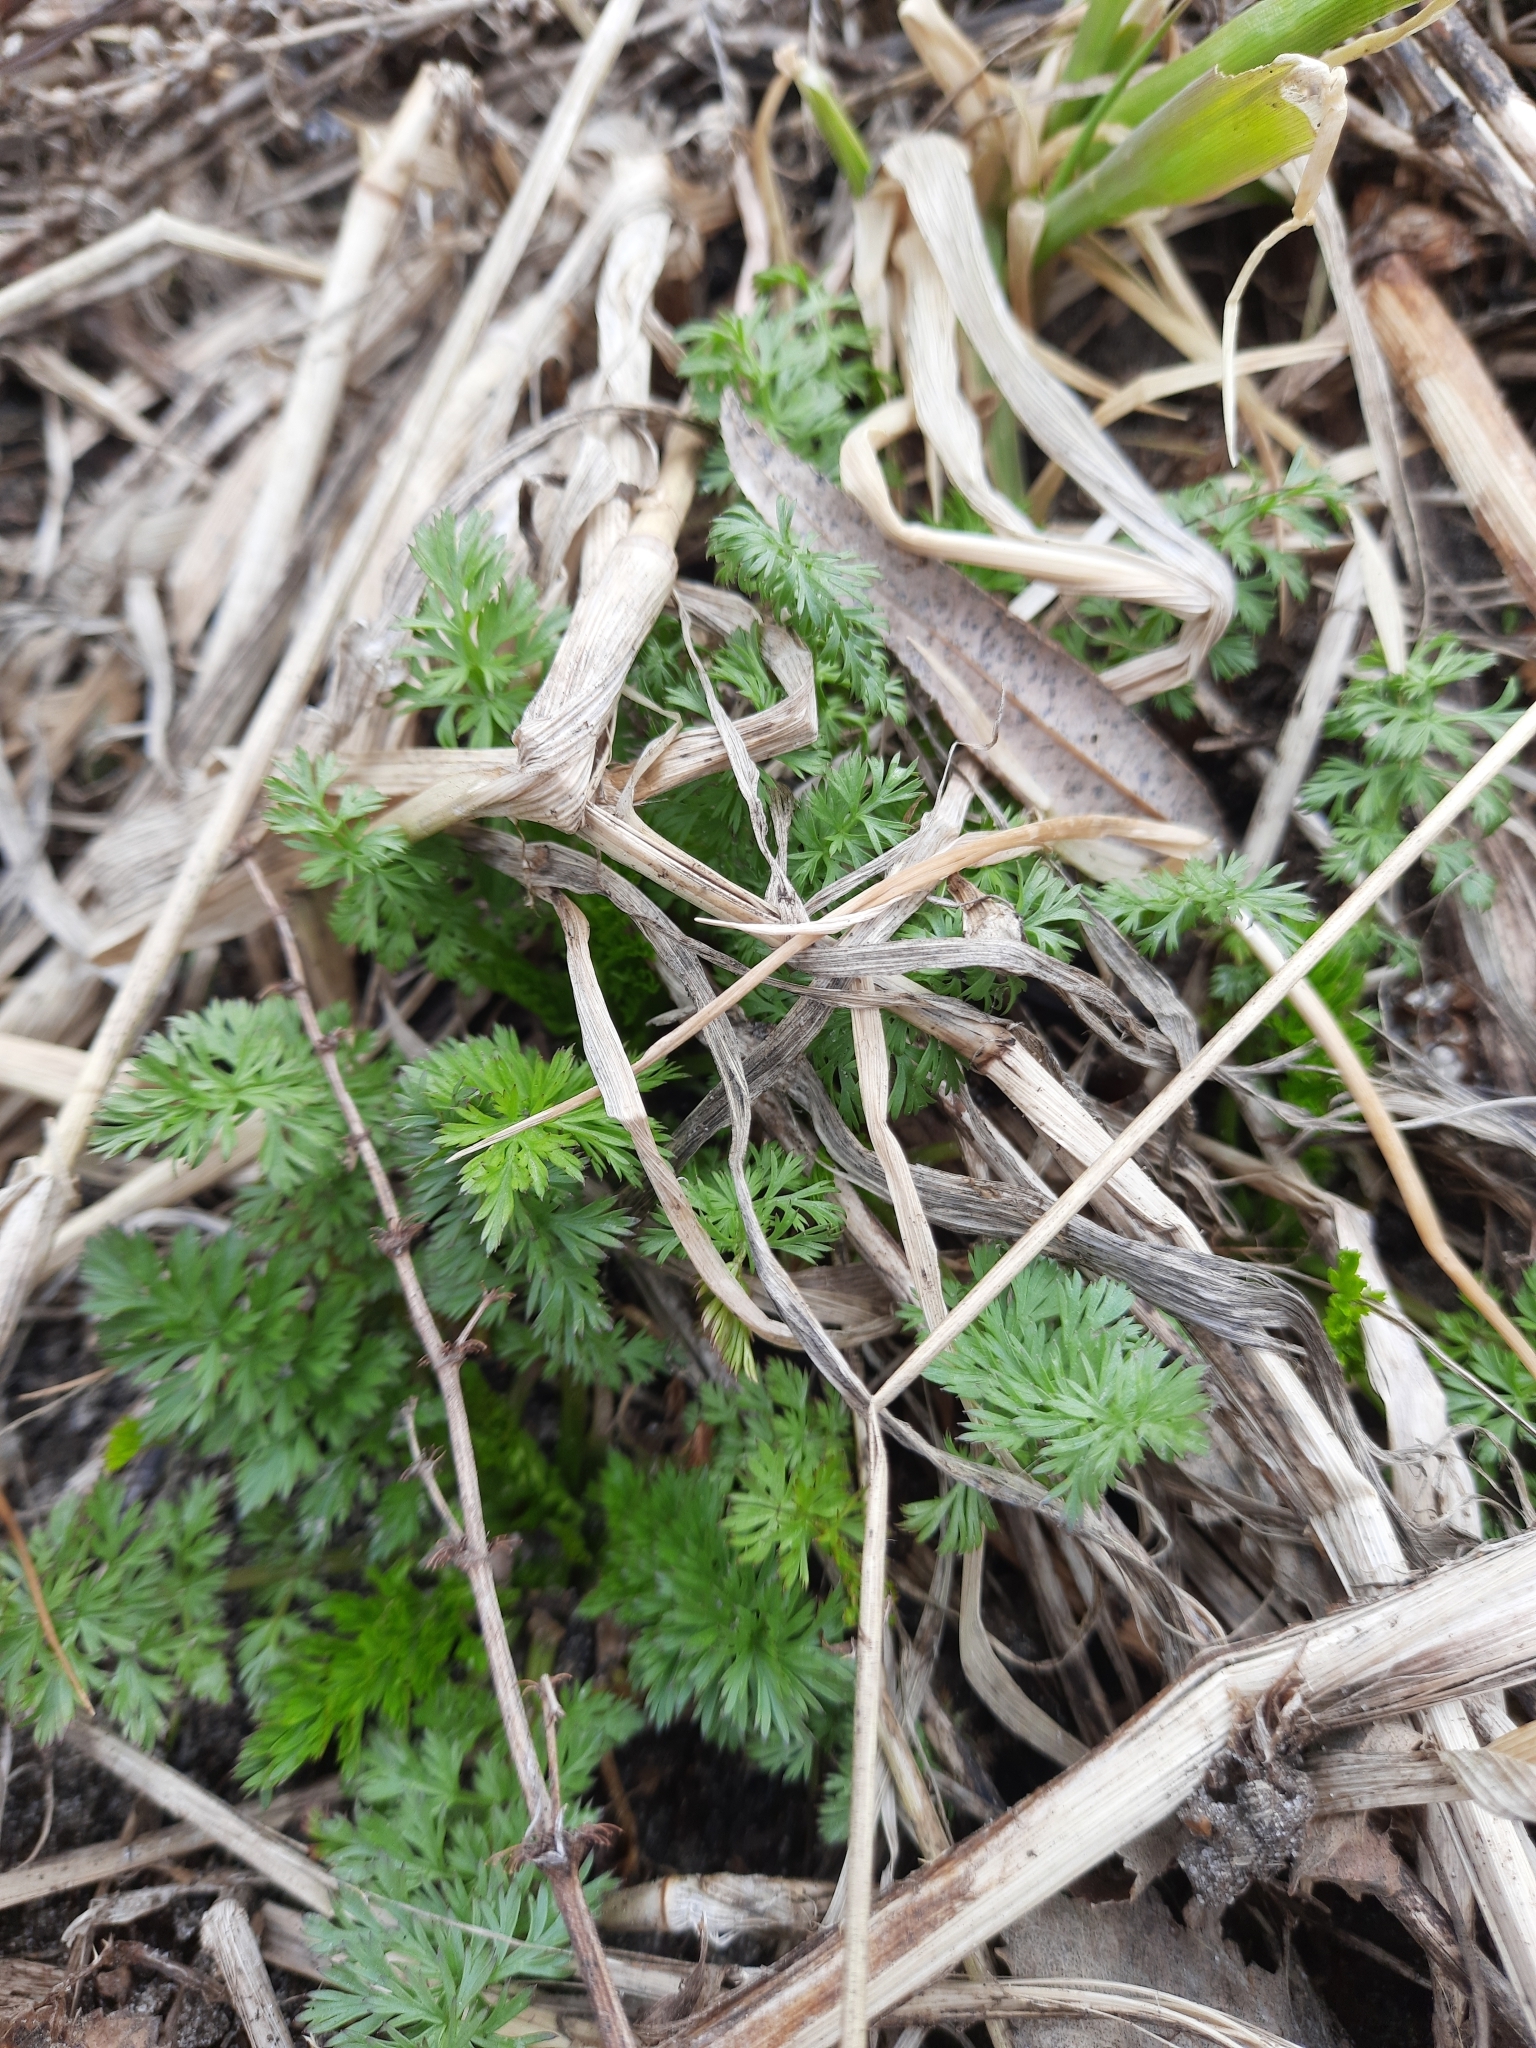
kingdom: Plantae
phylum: Tracheophyta
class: Magnoliopsida
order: Apiales
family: Apiaceae
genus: Carum
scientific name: Carum carvi
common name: Caraway
